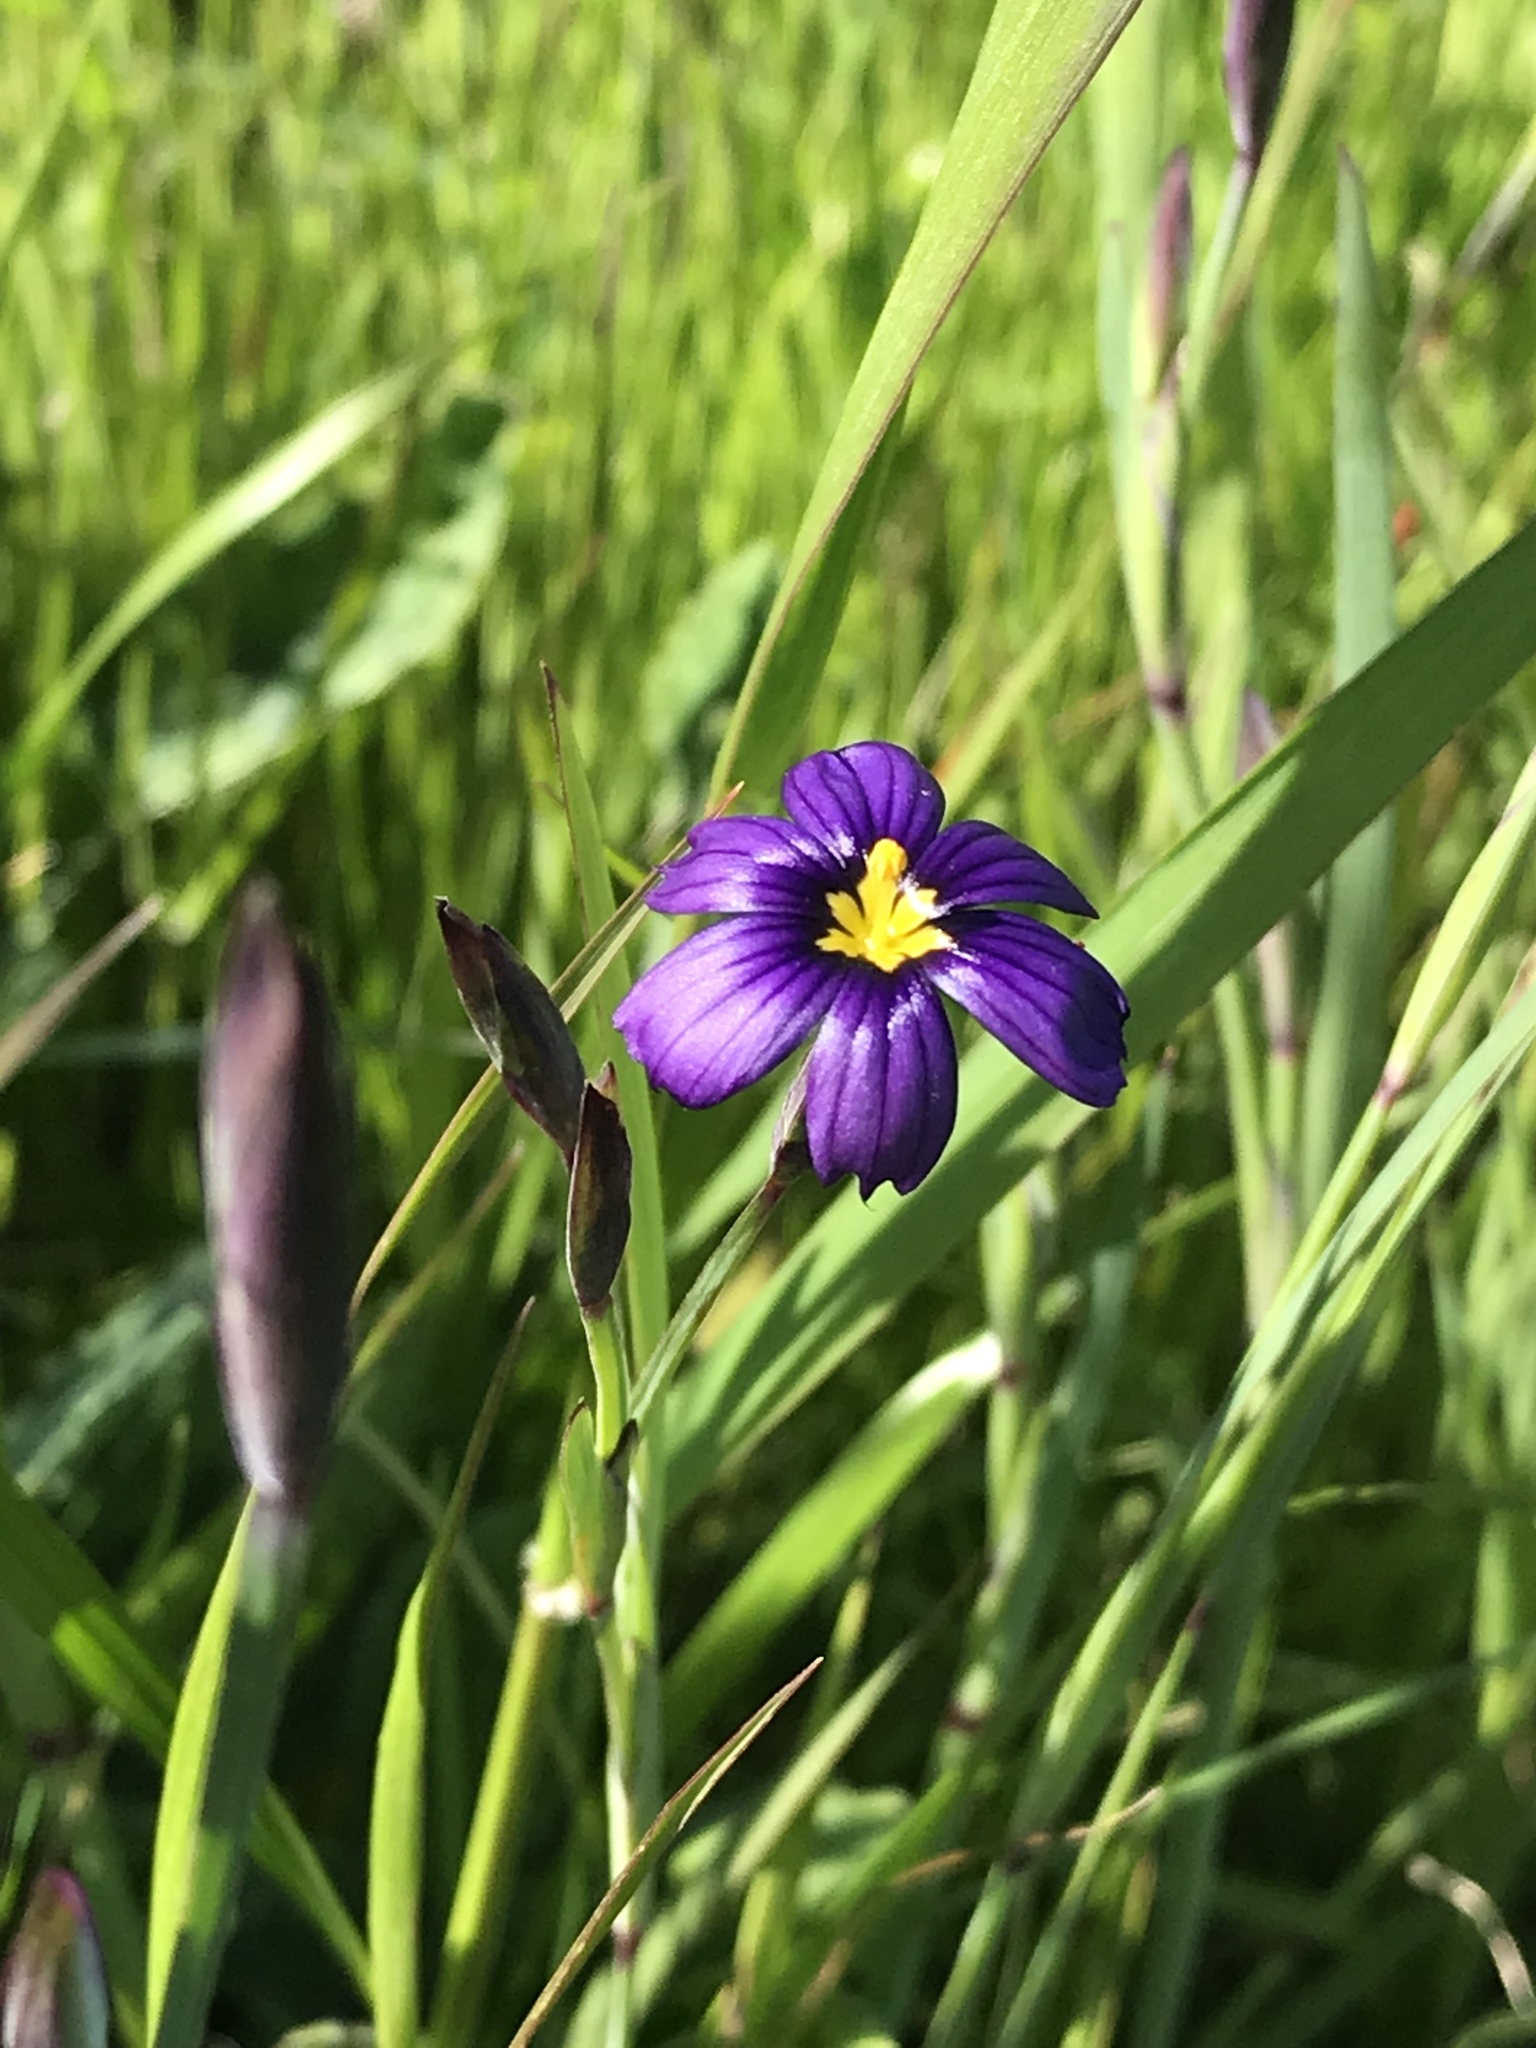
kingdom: Plantae
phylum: Tracheophyta
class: Liliopsida
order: Asparagales
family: Iridaceae
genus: Sisyrinchium
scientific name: Sisyrinchium bellum
